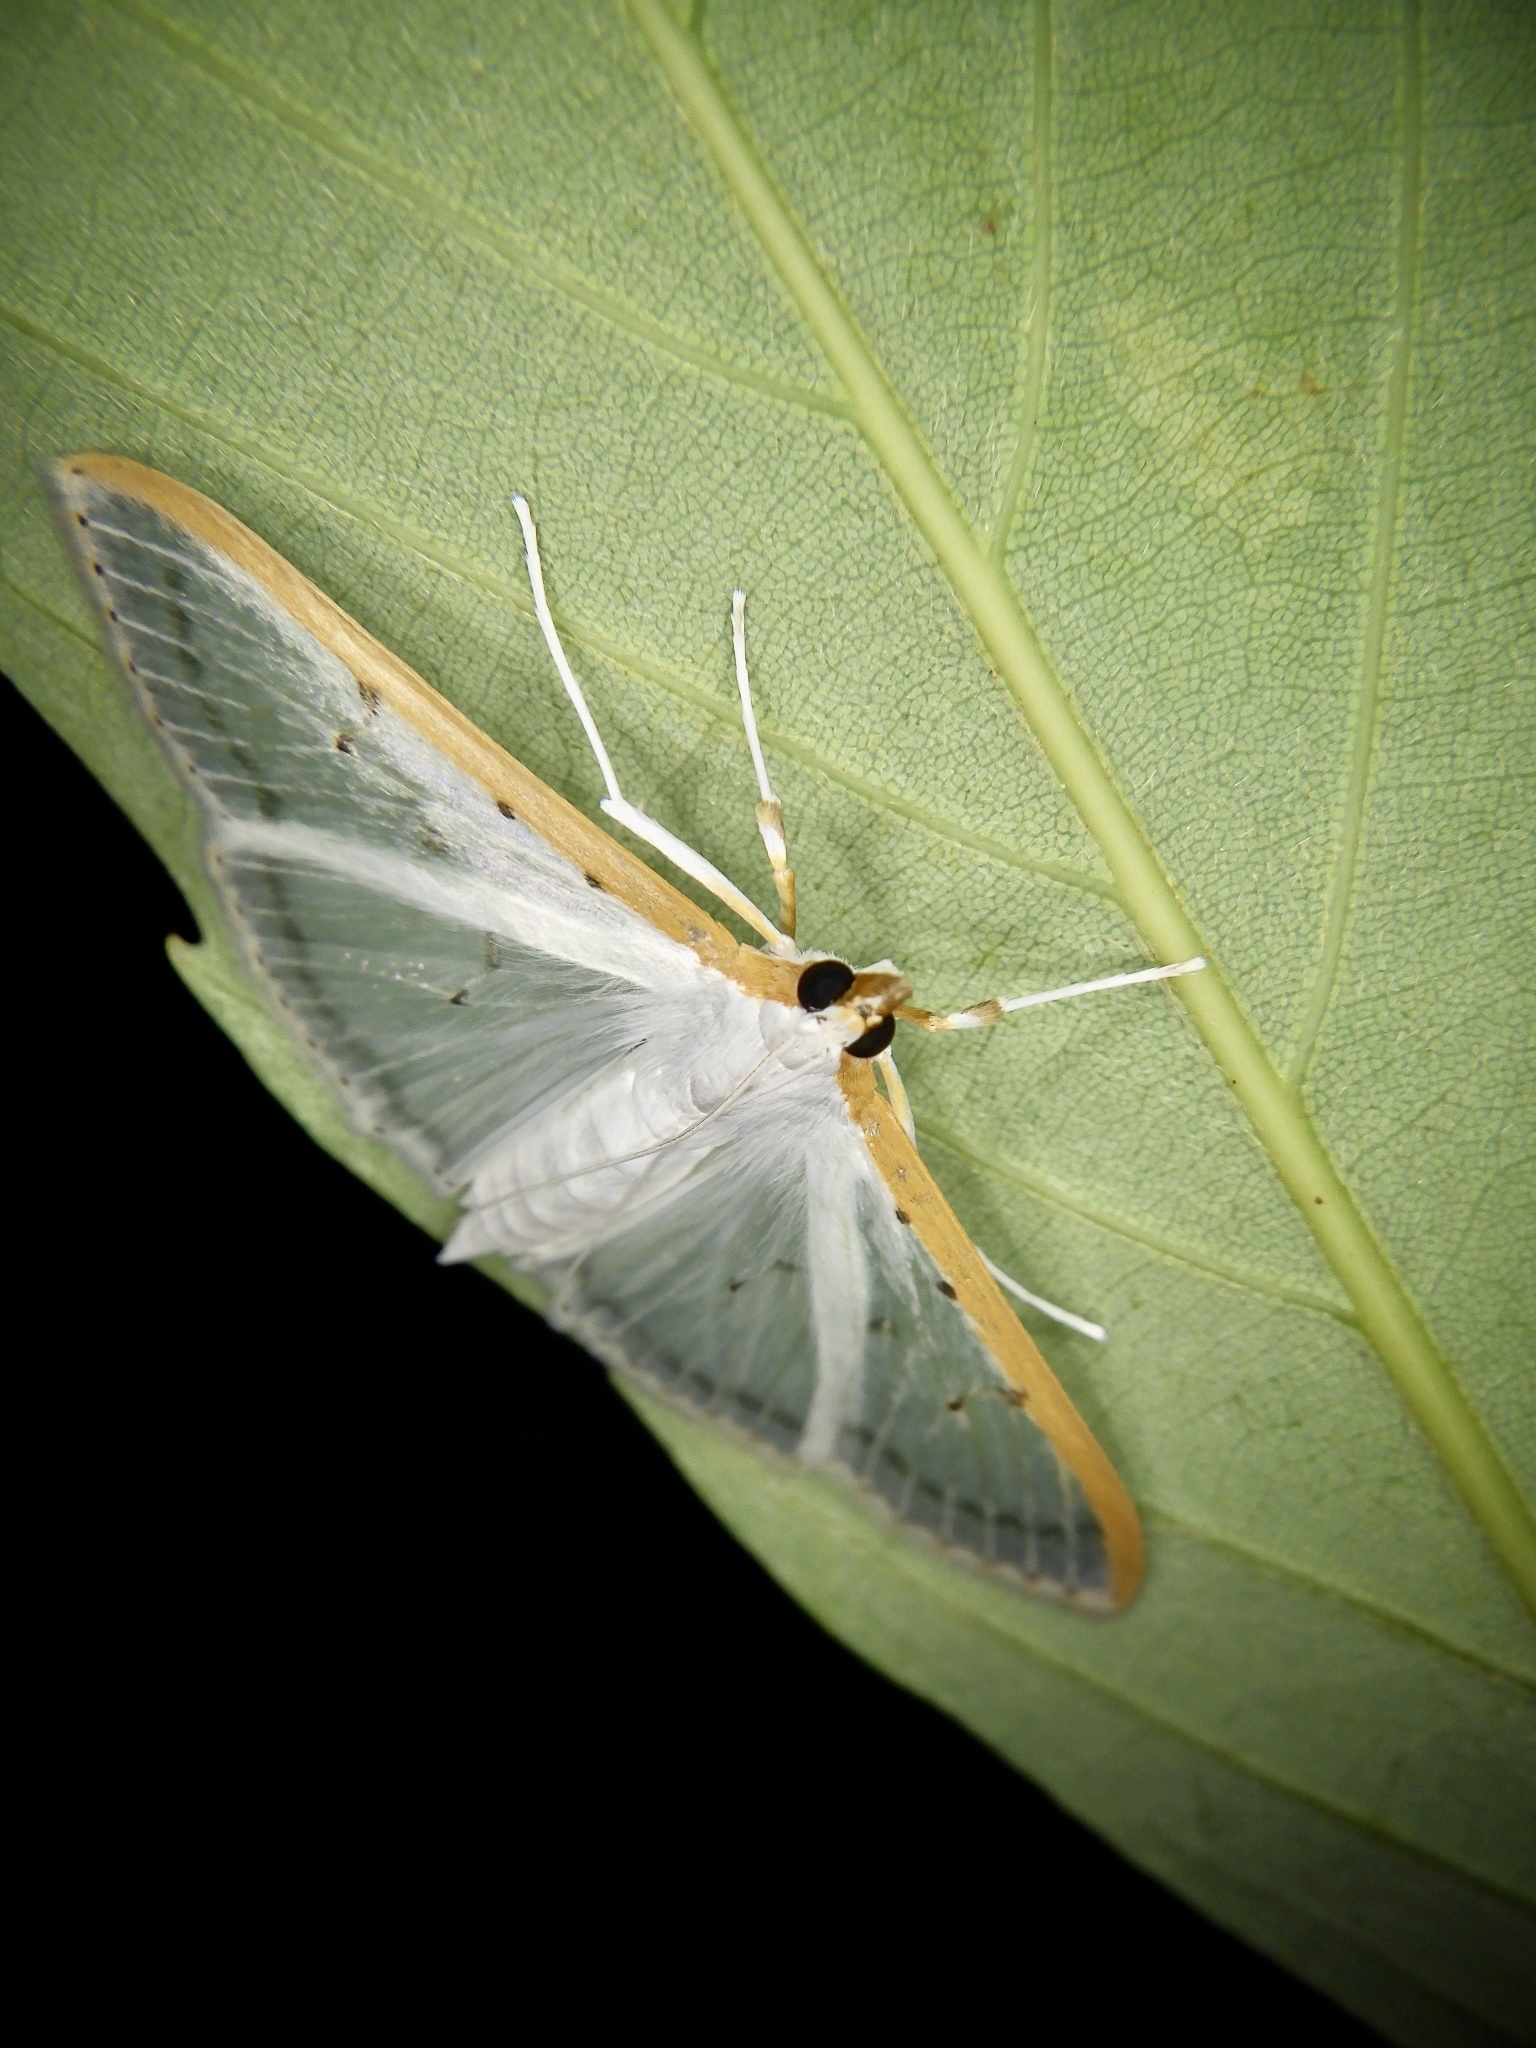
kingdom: Animalia
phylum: Arthropoda
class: Insecta
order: Lepidoptera
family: Crambidae
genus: Palpita
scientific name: Palpita nigropunctalis
